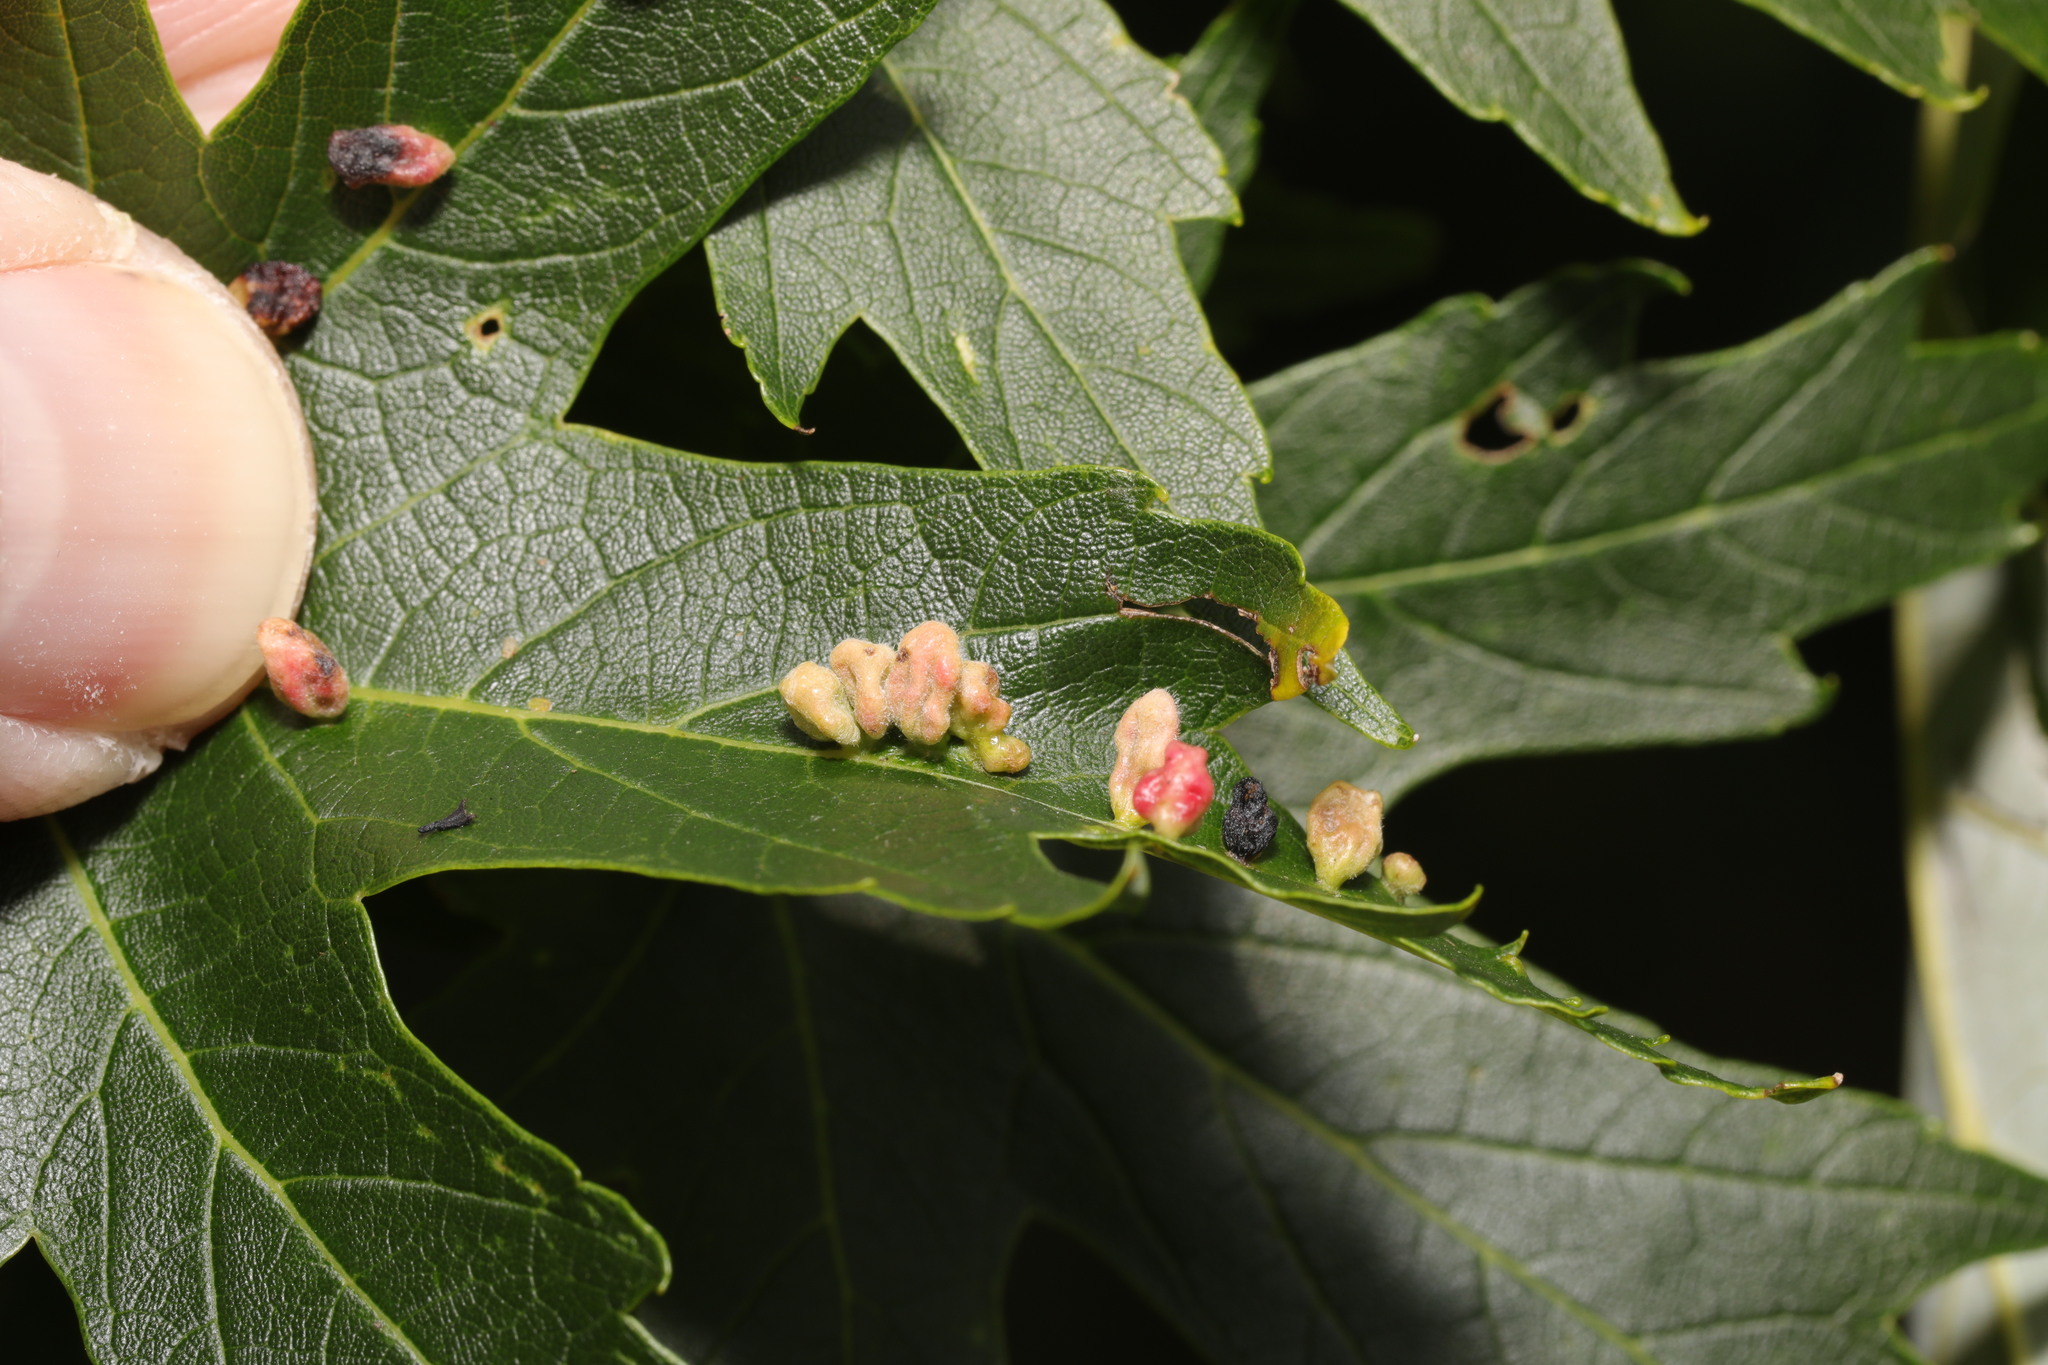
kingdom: Animalia
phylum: Arthropoda
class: Arachnida
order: Trombidiformes
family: Eriophyidae
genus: Vasates
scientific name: Vasates quadripedes
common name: Maple bladder gall mite
